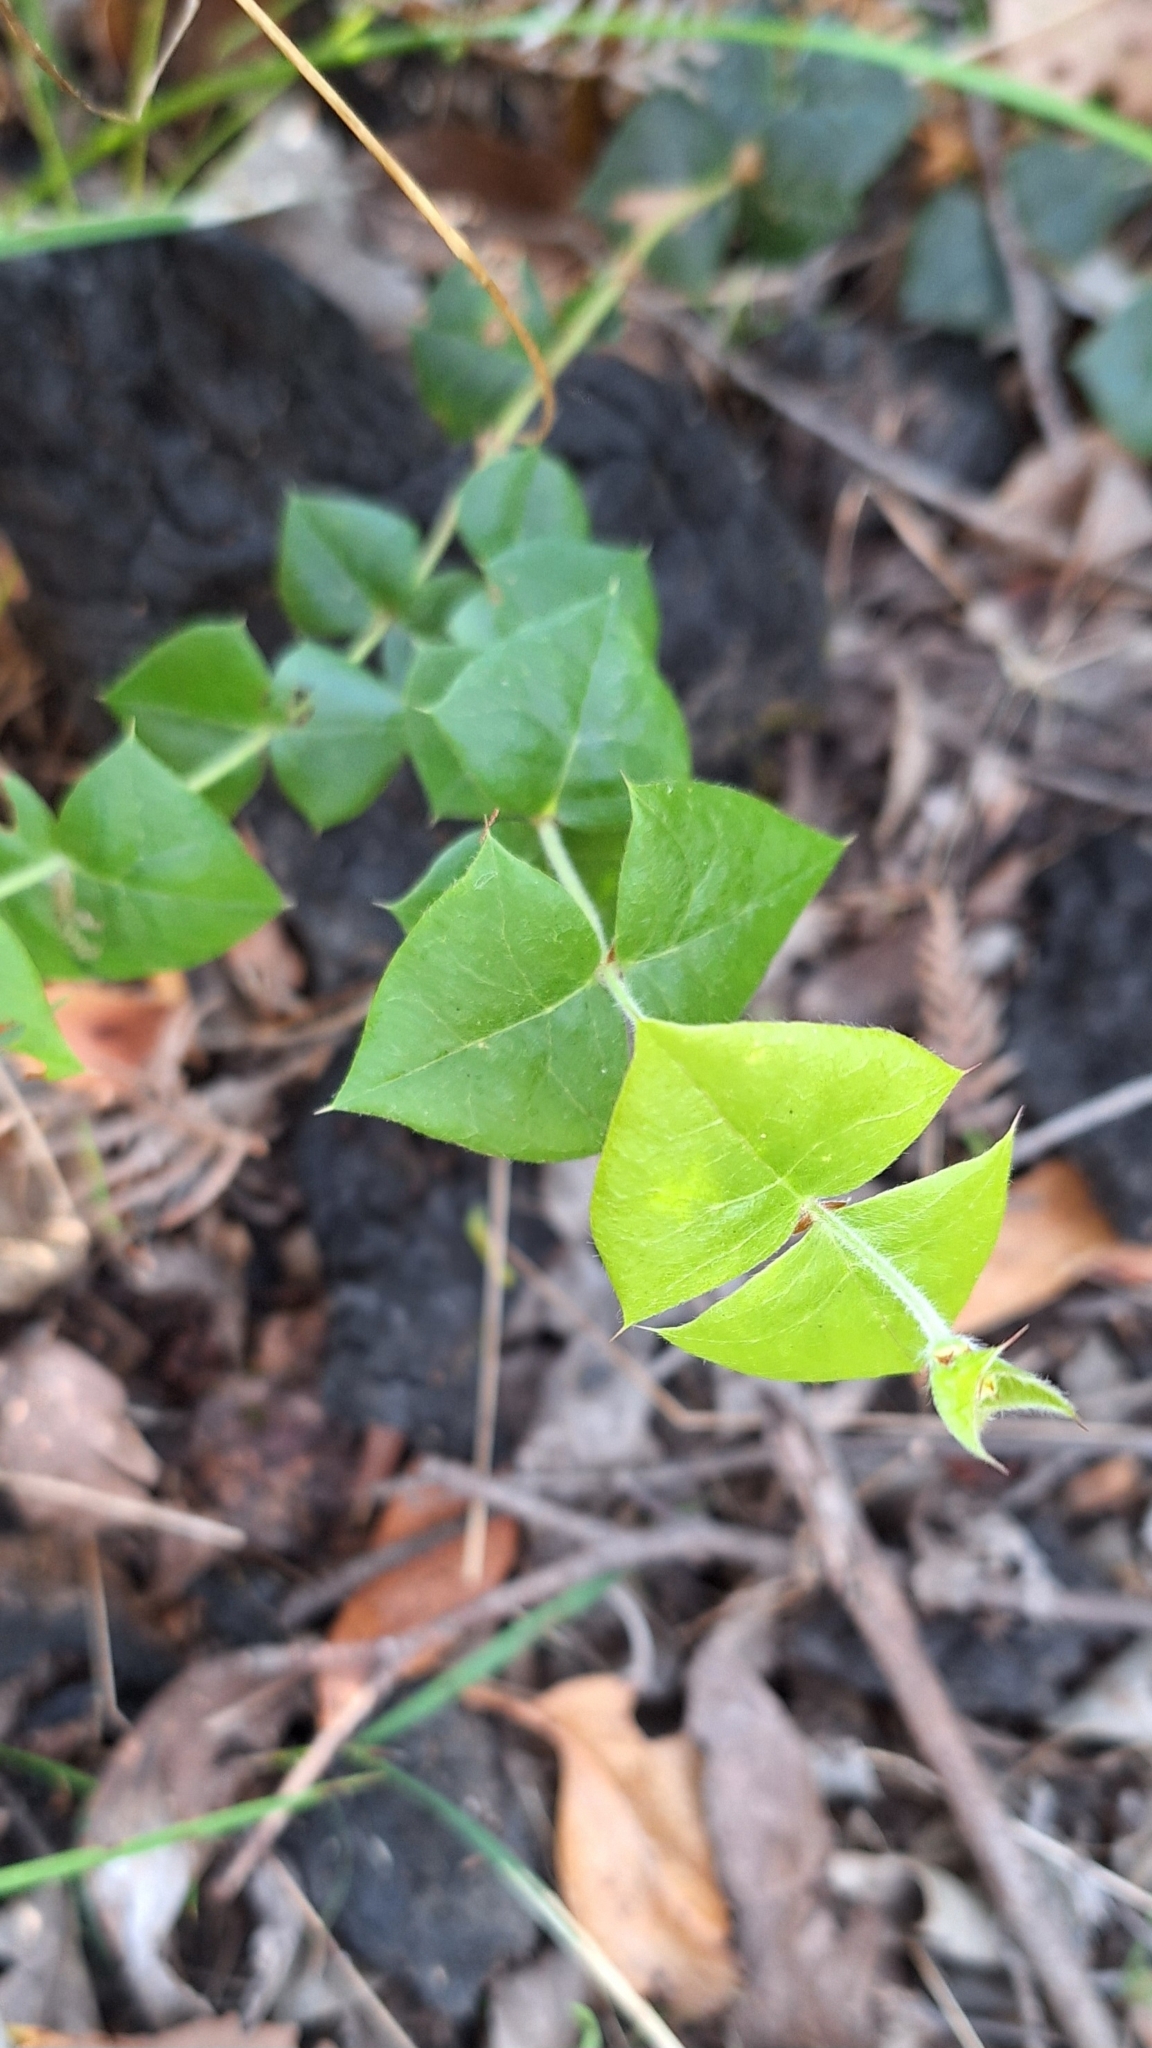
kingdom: Plantae
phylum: Tracheophyta
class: Magnoliopsida
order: Fabales
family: Fabaceae
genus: Platylobium
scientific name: Platylobium obtusangulum
